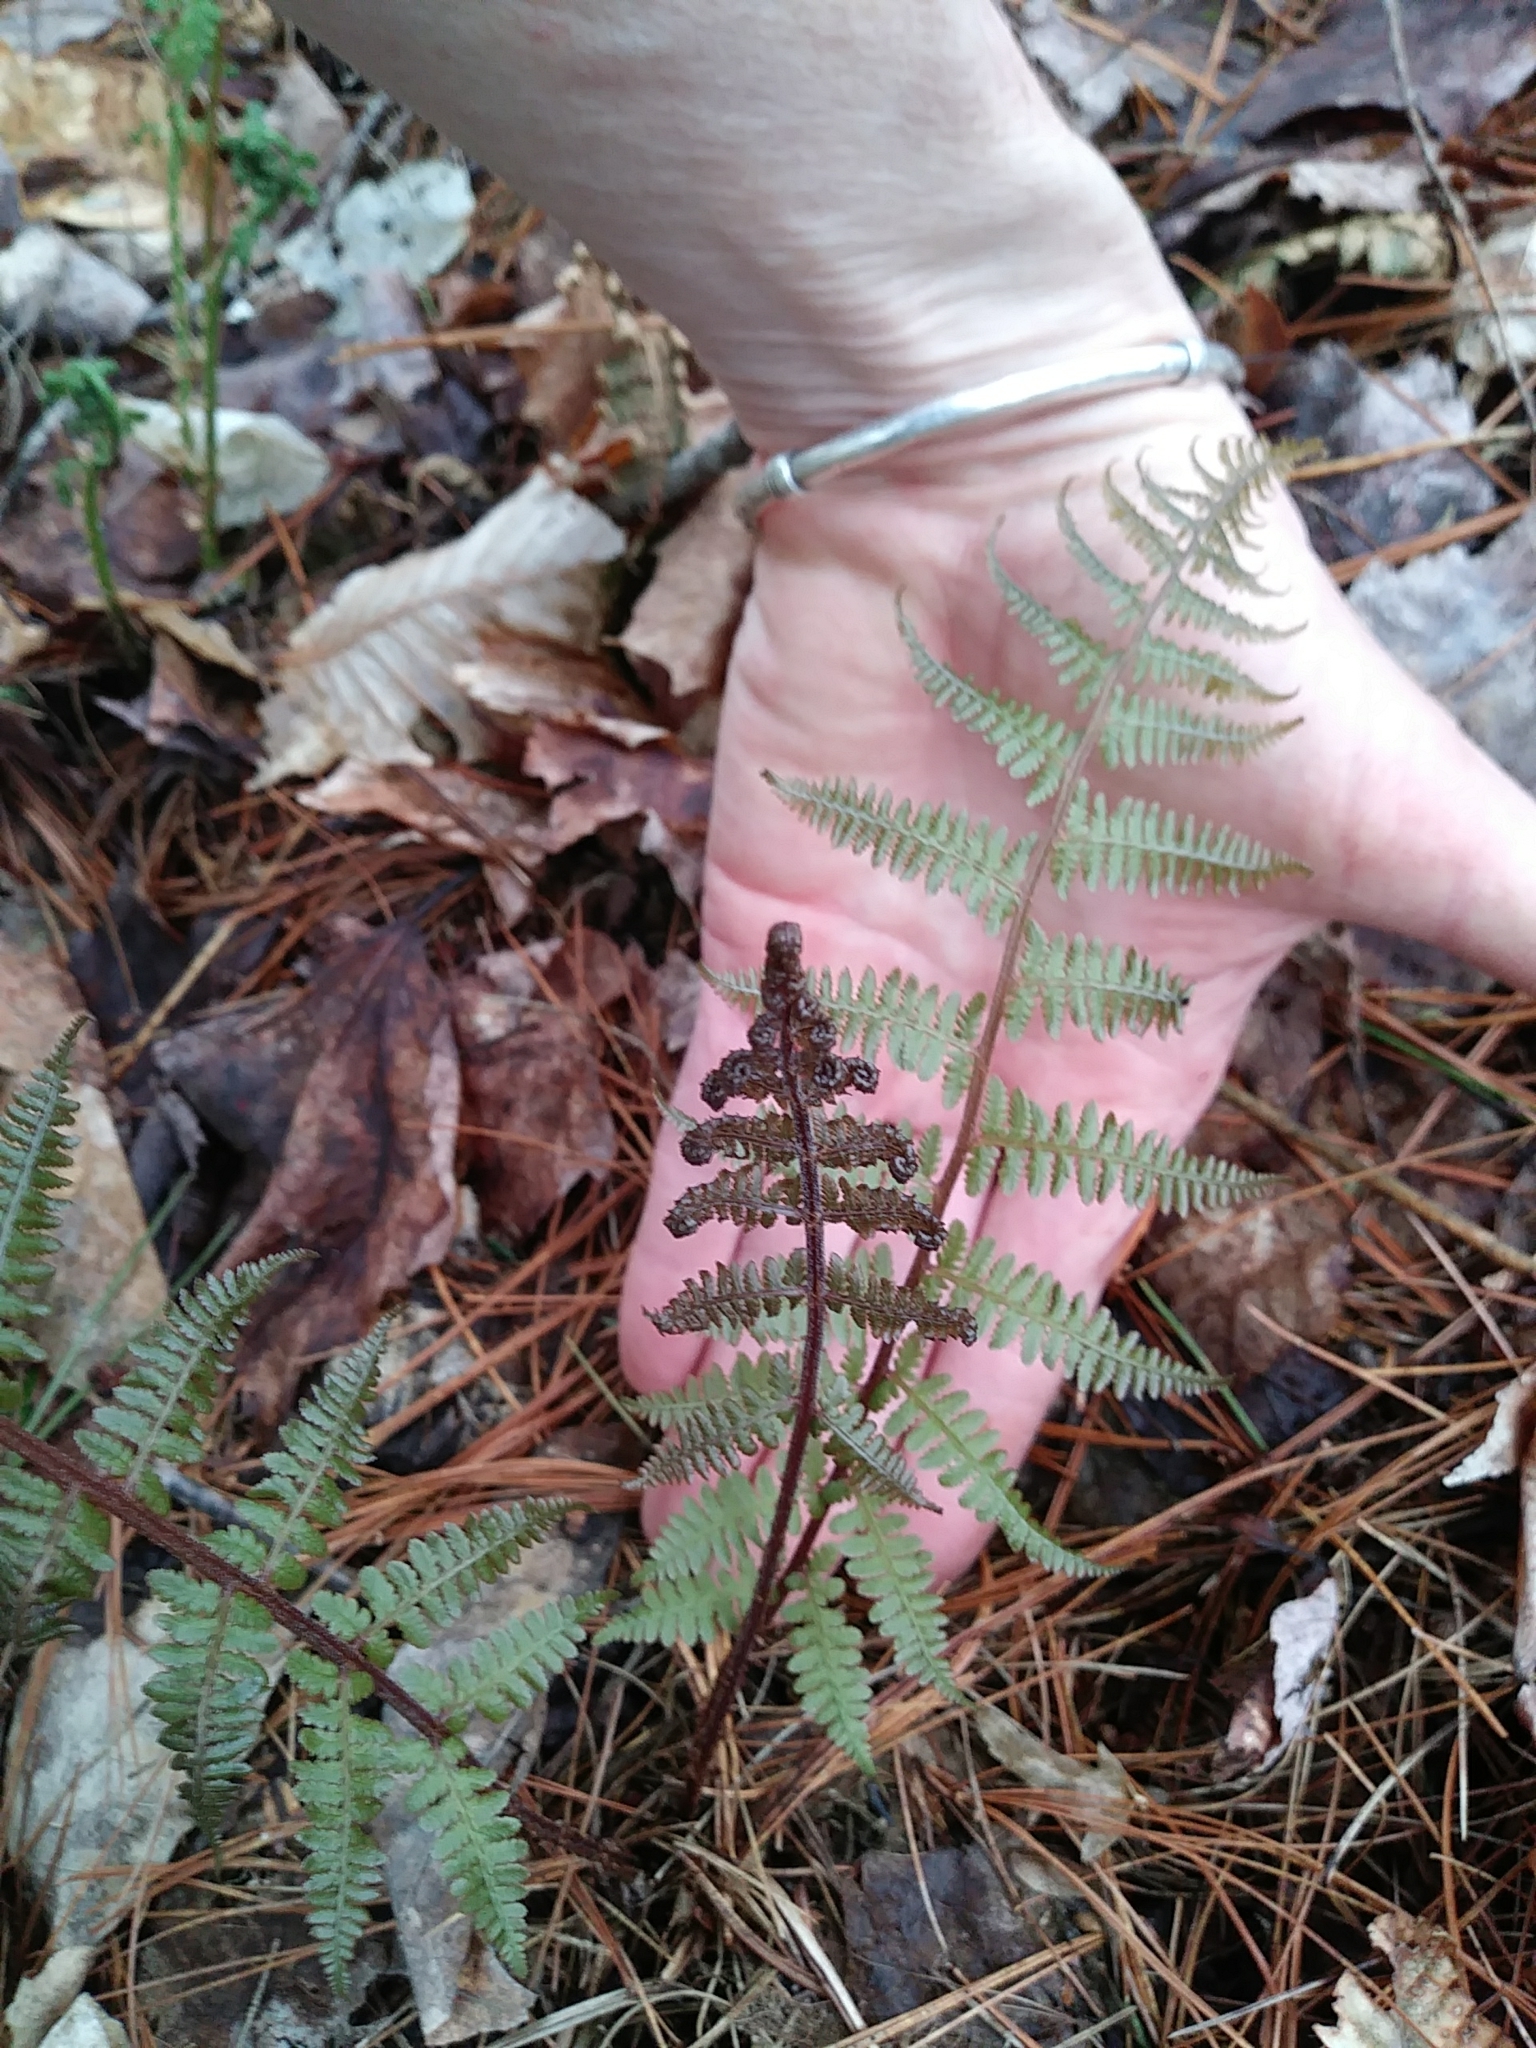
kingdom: Plantae
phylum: Tracheophyta
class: Polypodiopsida
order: Polypodiales
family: Athyriaceae
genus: Athyrium
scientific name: Athyrium angustum
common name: Northern lady fern
